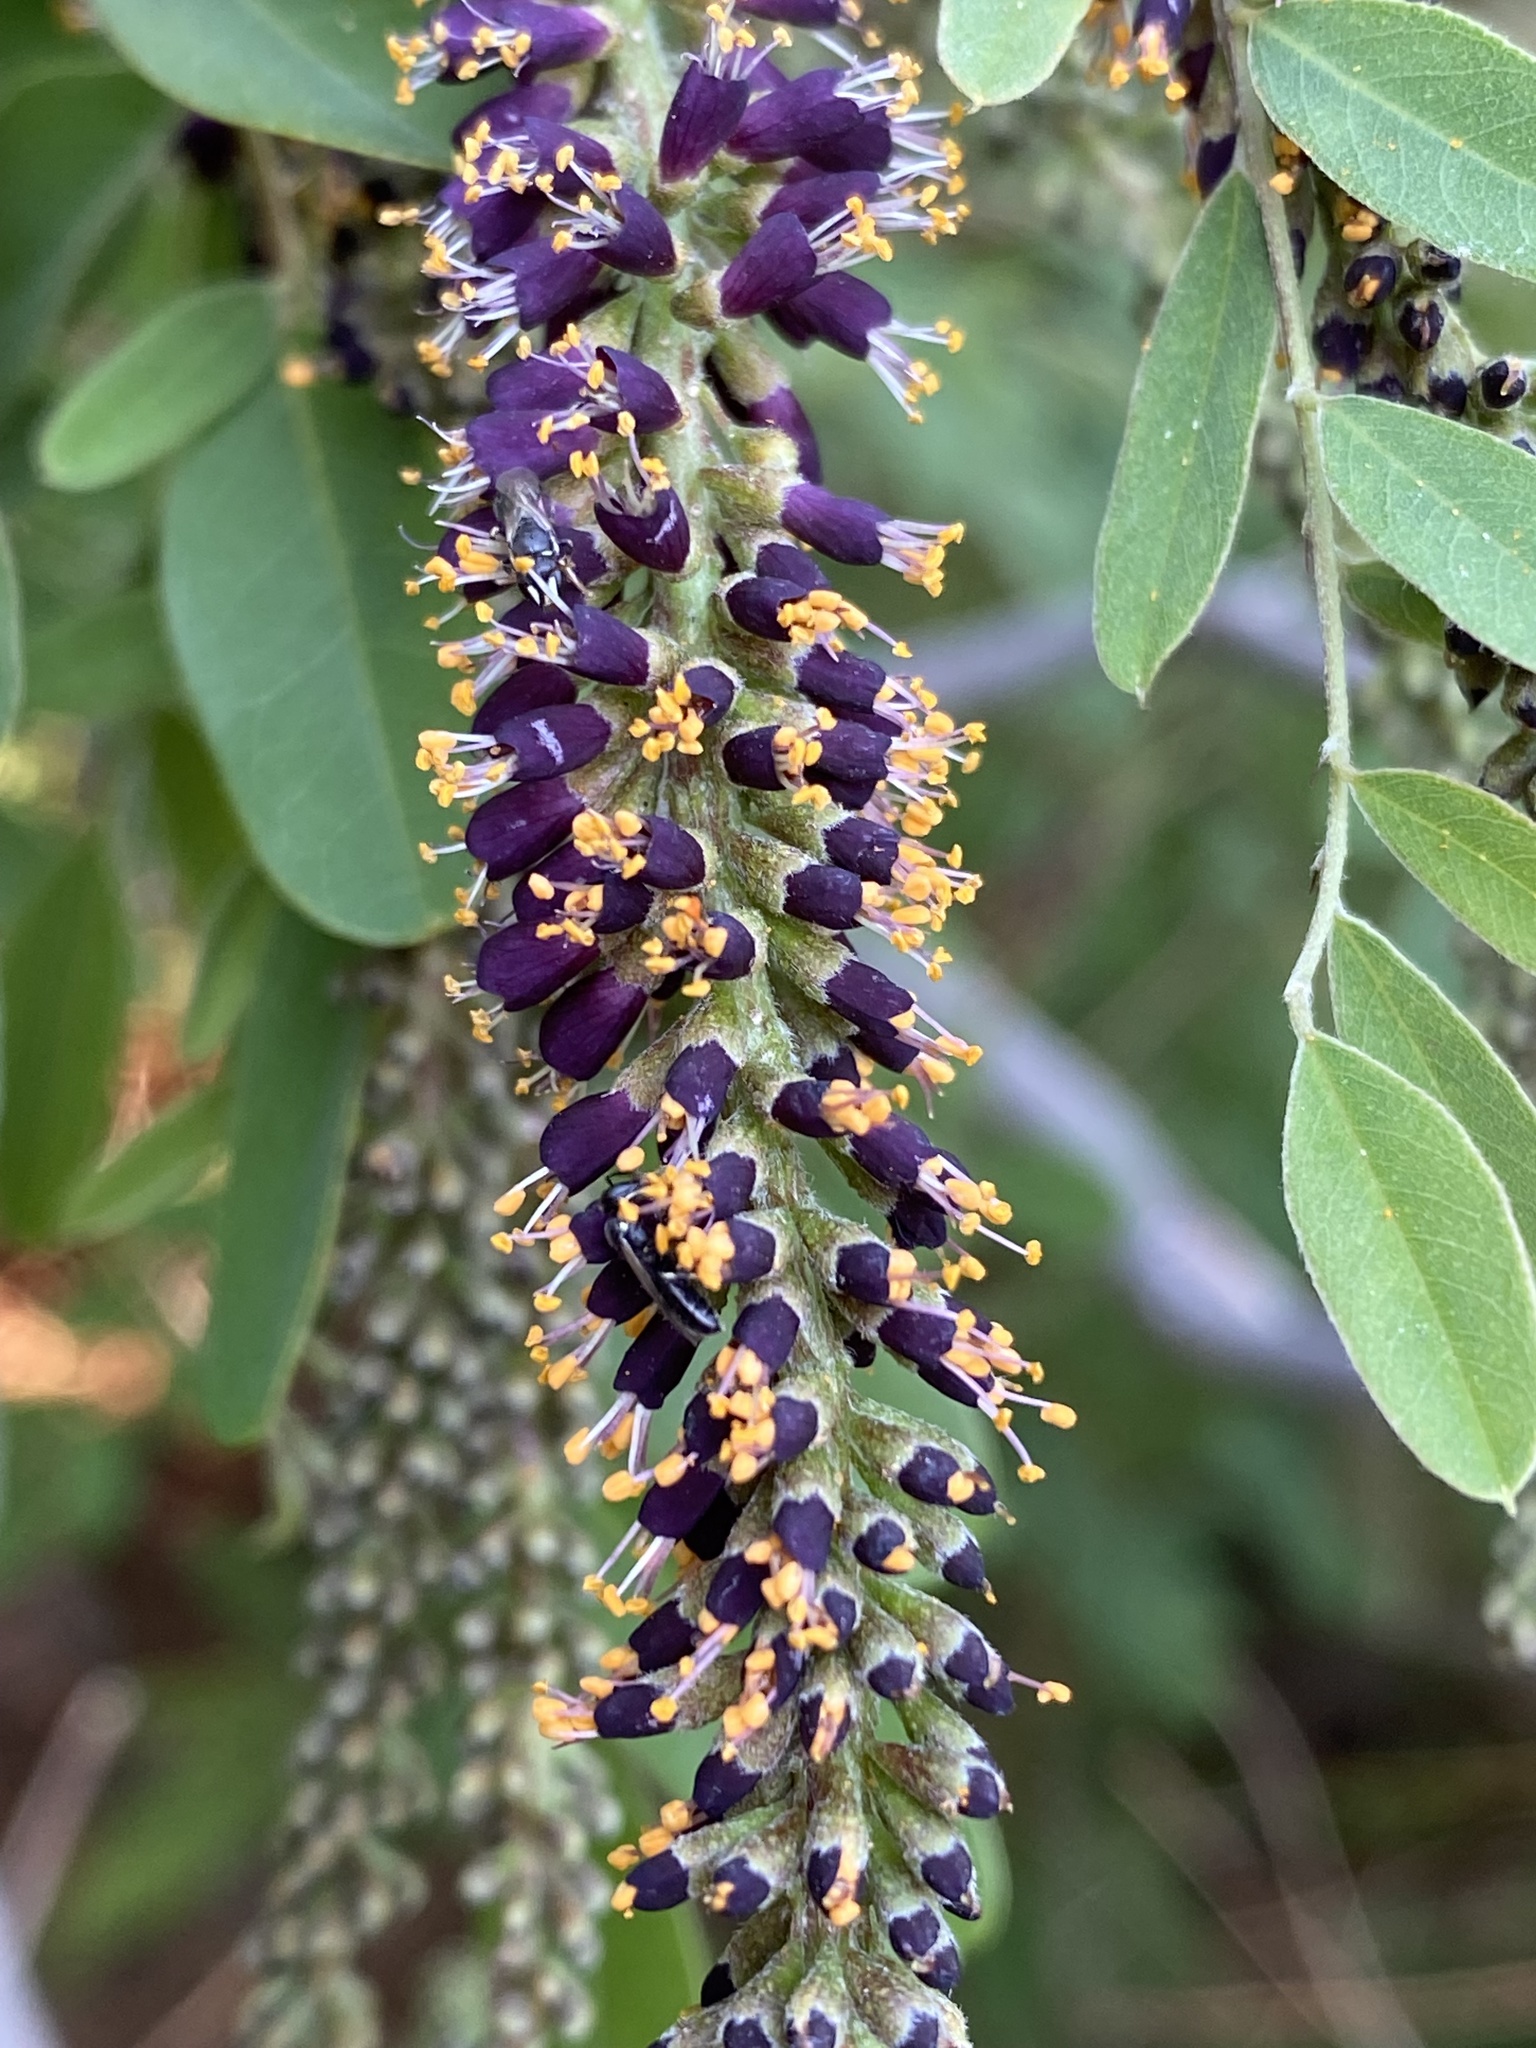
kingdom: Animalia
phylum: Arthropoda
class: Insecta
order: Hymenoptera
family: Colletidae
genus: Hylaeus
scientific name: Hylaeus
